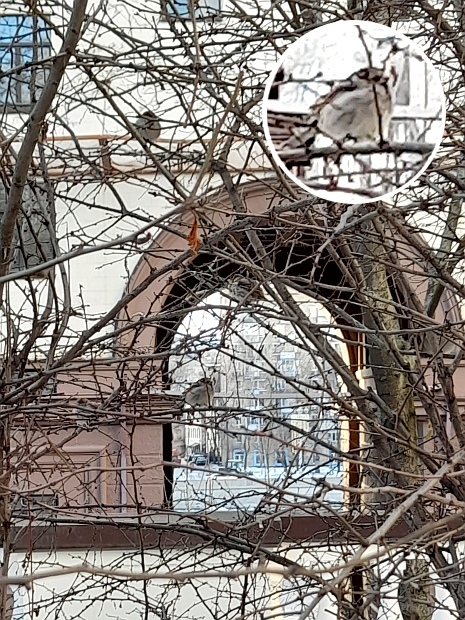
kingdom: Animalia
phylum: Chordata
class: Aves
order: Passeriformes
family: Passeridae
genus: Passer
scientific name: Passer domesticus
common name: House sparrow
